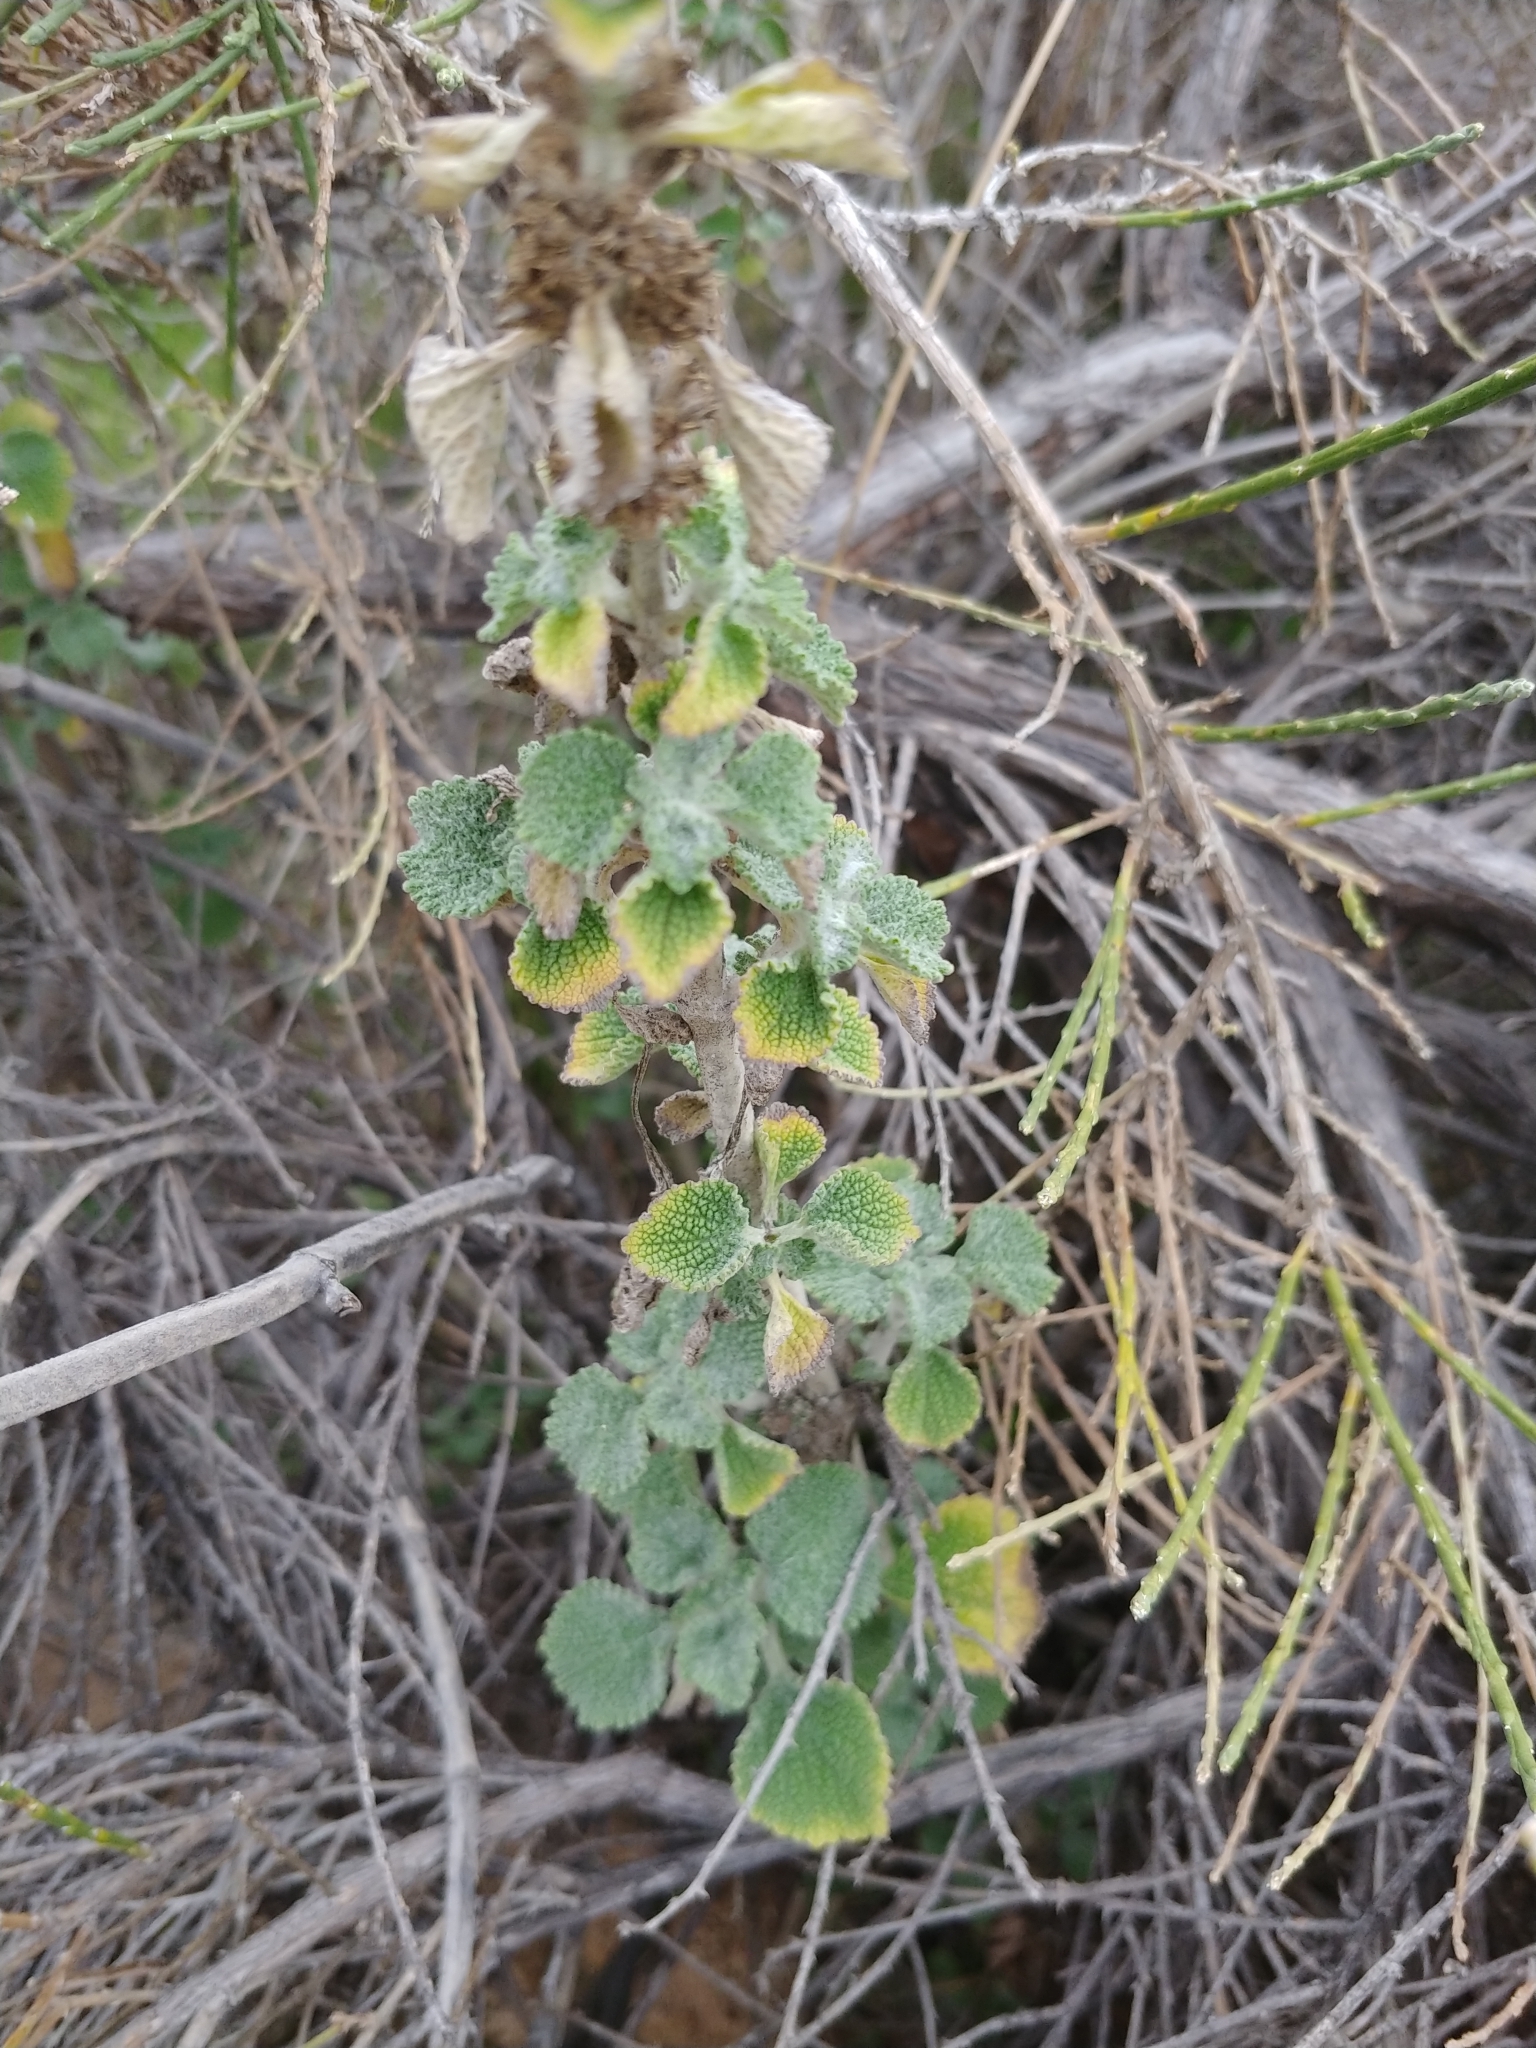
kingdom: Plantae
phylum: Tracheophyta
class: Magnoliopsida
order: Lamiales
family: Lamiaceae
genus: Marrubium
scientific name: Marrubium vulgare
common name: Horehound
